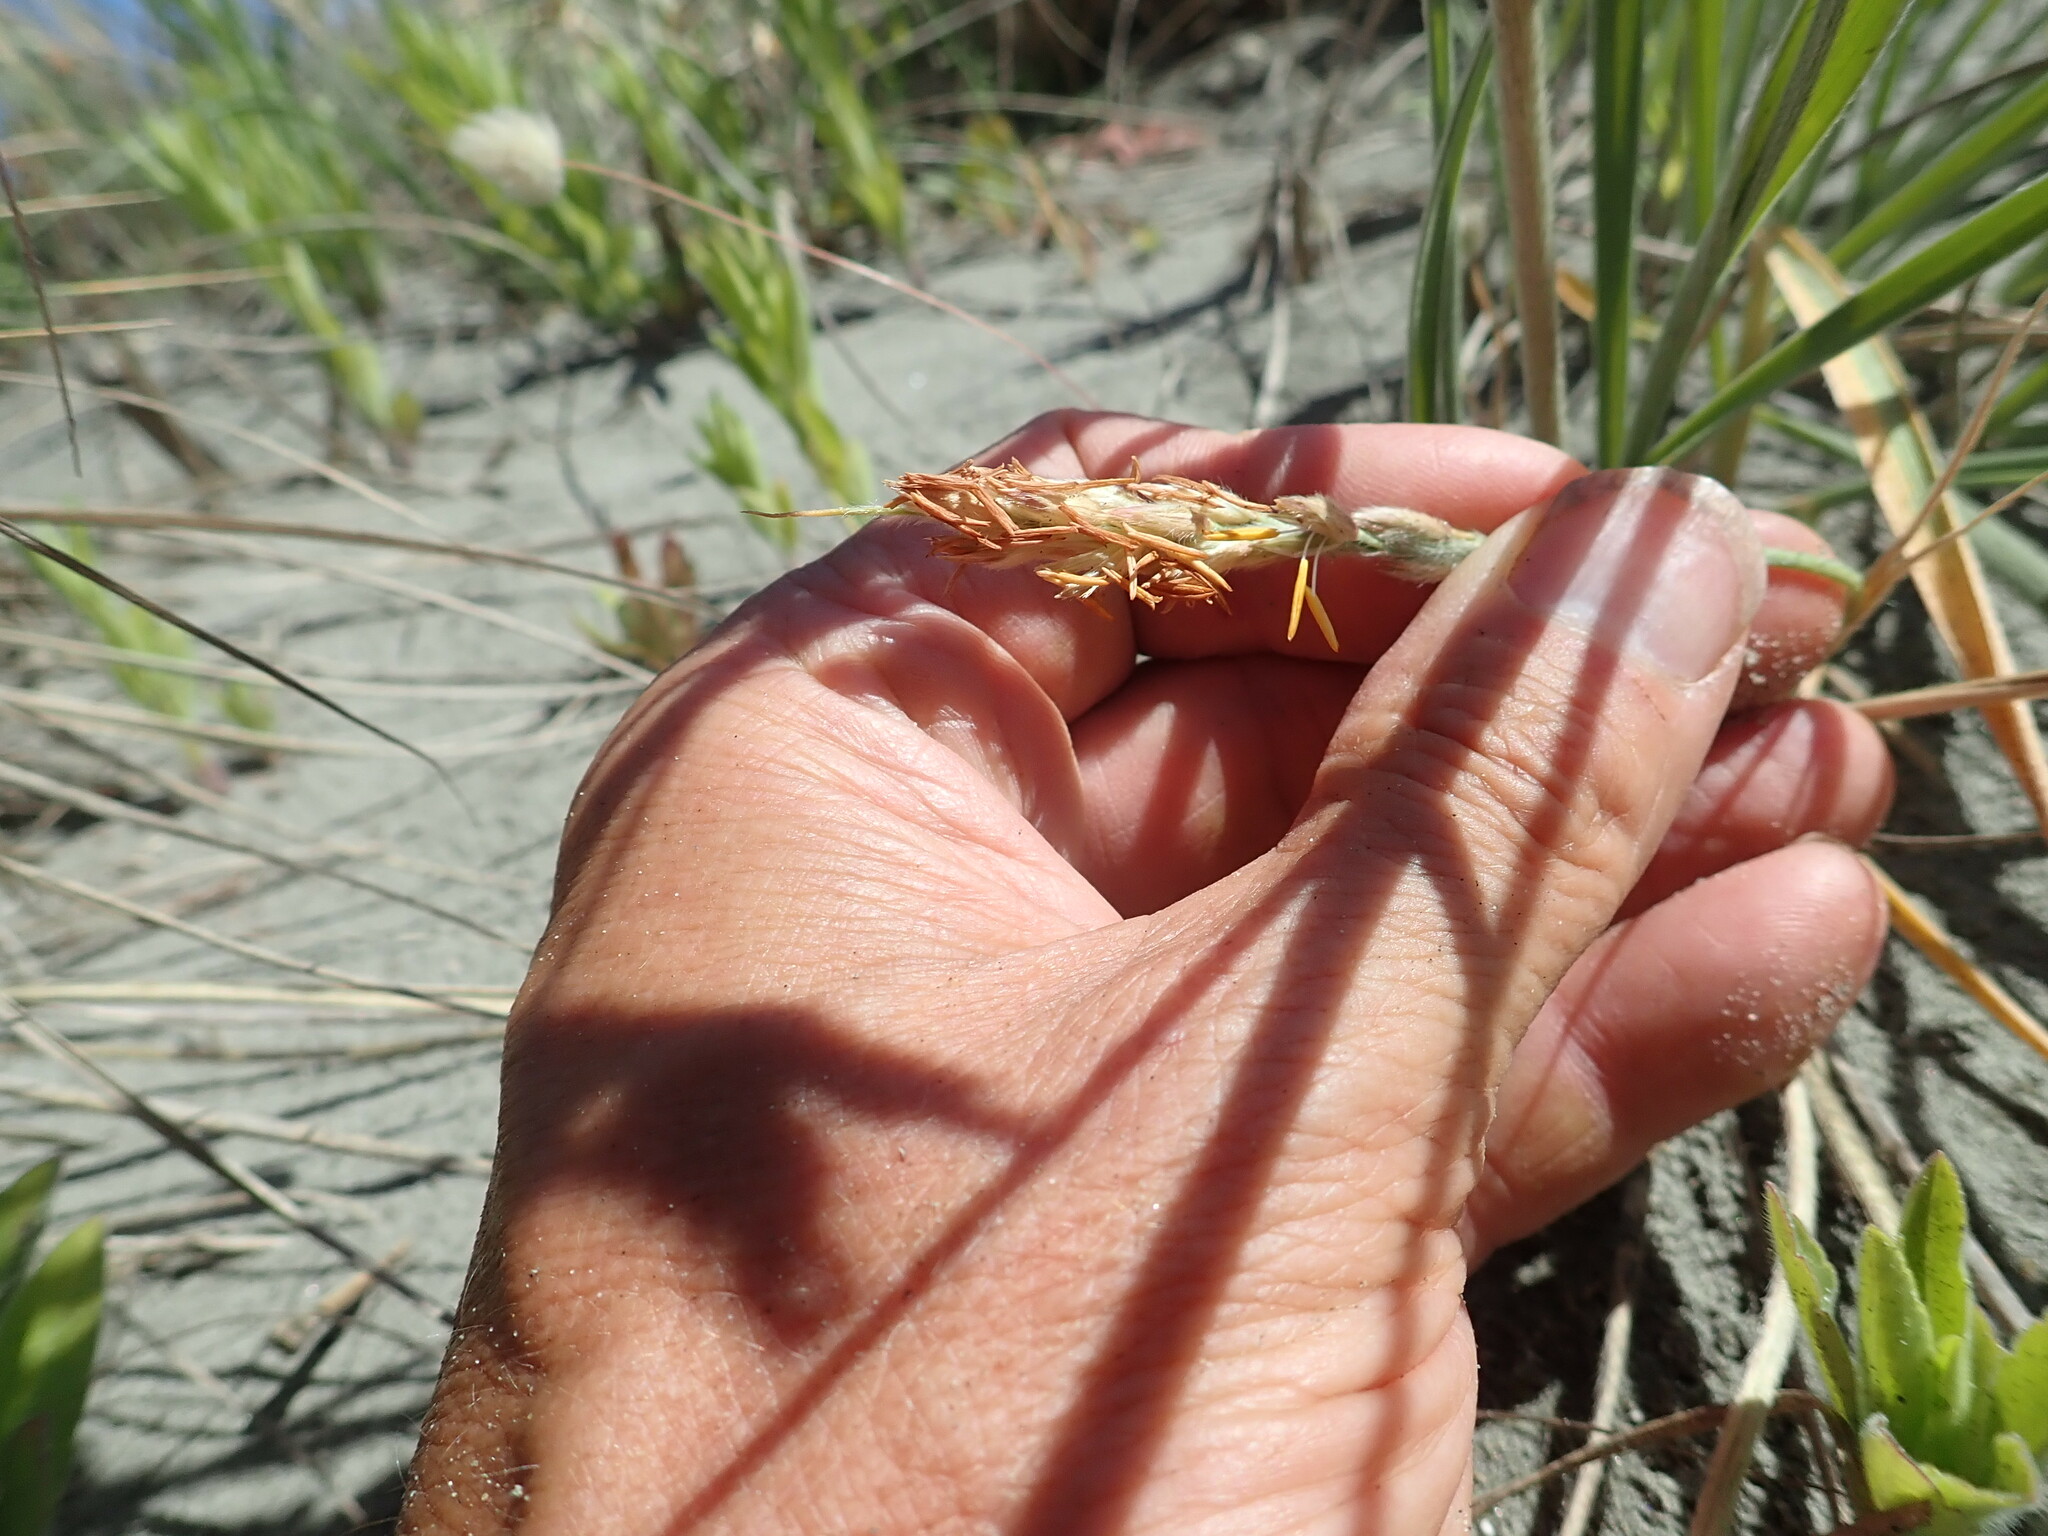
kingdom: Plantae
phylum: Tracheophyta
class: Liliopsida
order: Poales
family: Poaceae
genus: Spinifex
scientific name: Spinifex sericeus
